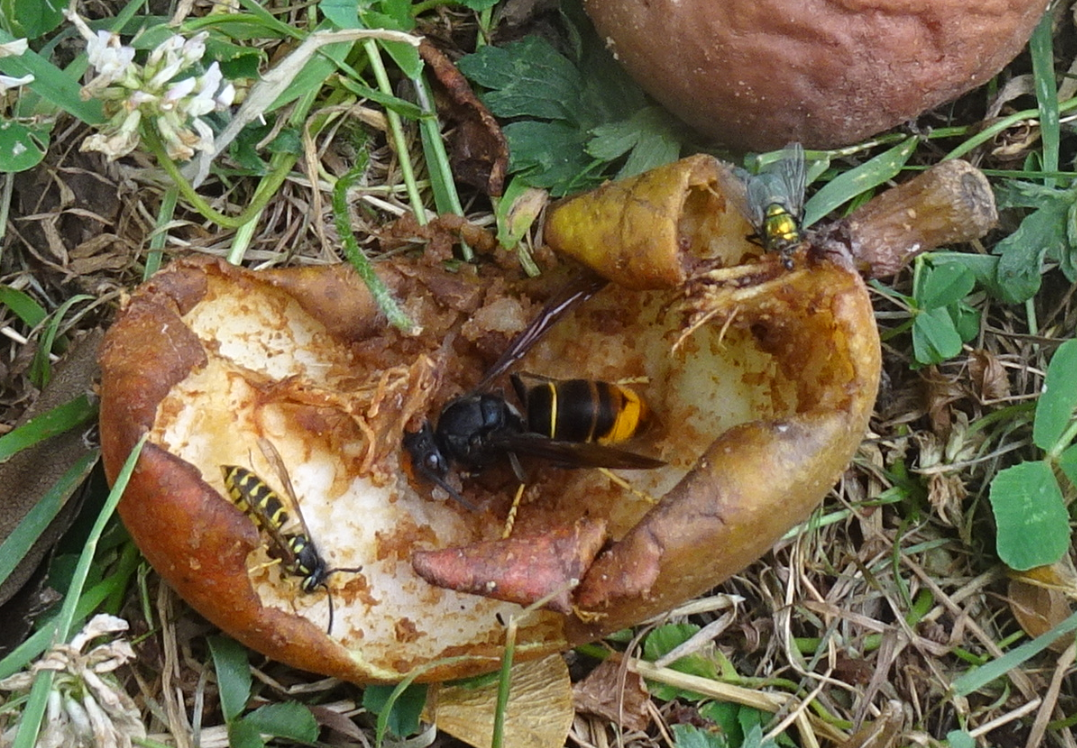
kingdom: Animalia
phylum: Arthropoda
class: Insecta
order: Hymenoptera
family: Vespidae
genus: Vespa
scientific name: Vespa velutina
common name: Asian hornet
